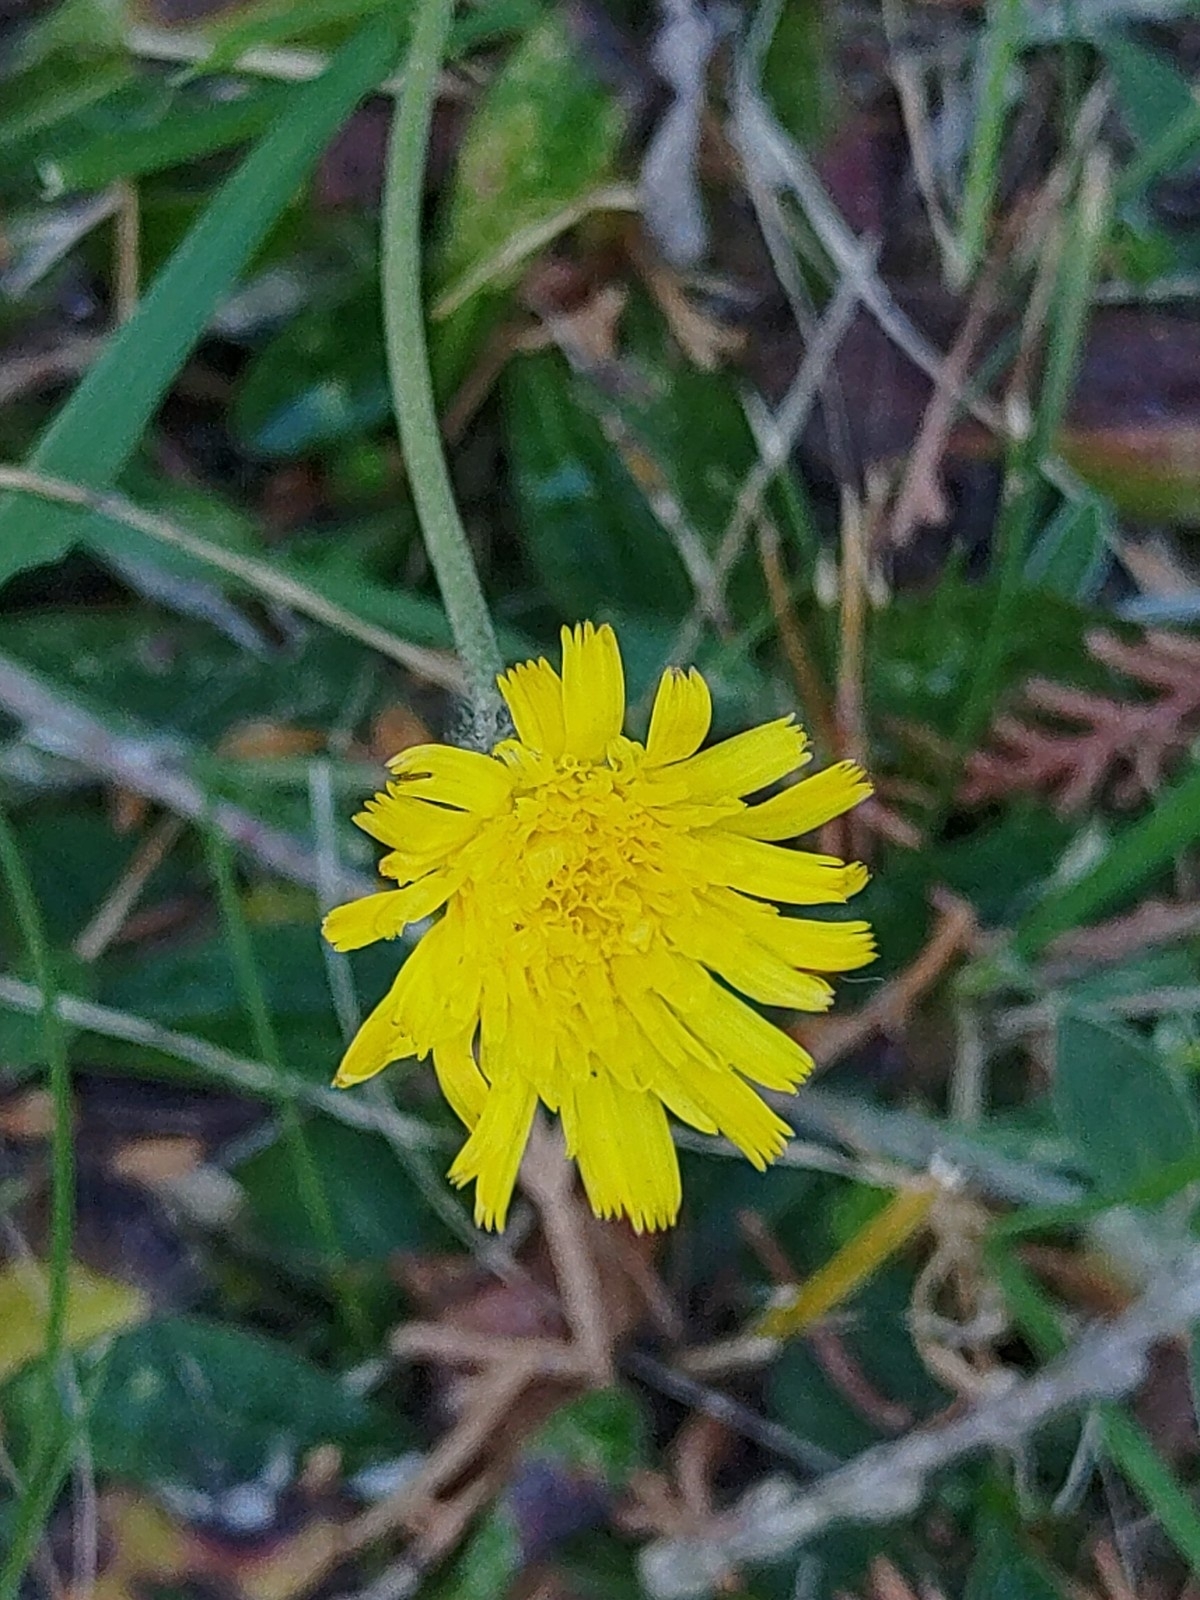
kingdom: Plantae
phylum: Tracheophyta
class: Magnoliopsida
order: Asterales
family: Asteraceae
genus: Pilosella
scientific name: Pilosella officinarum
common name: Mouse-ear hawkweed
